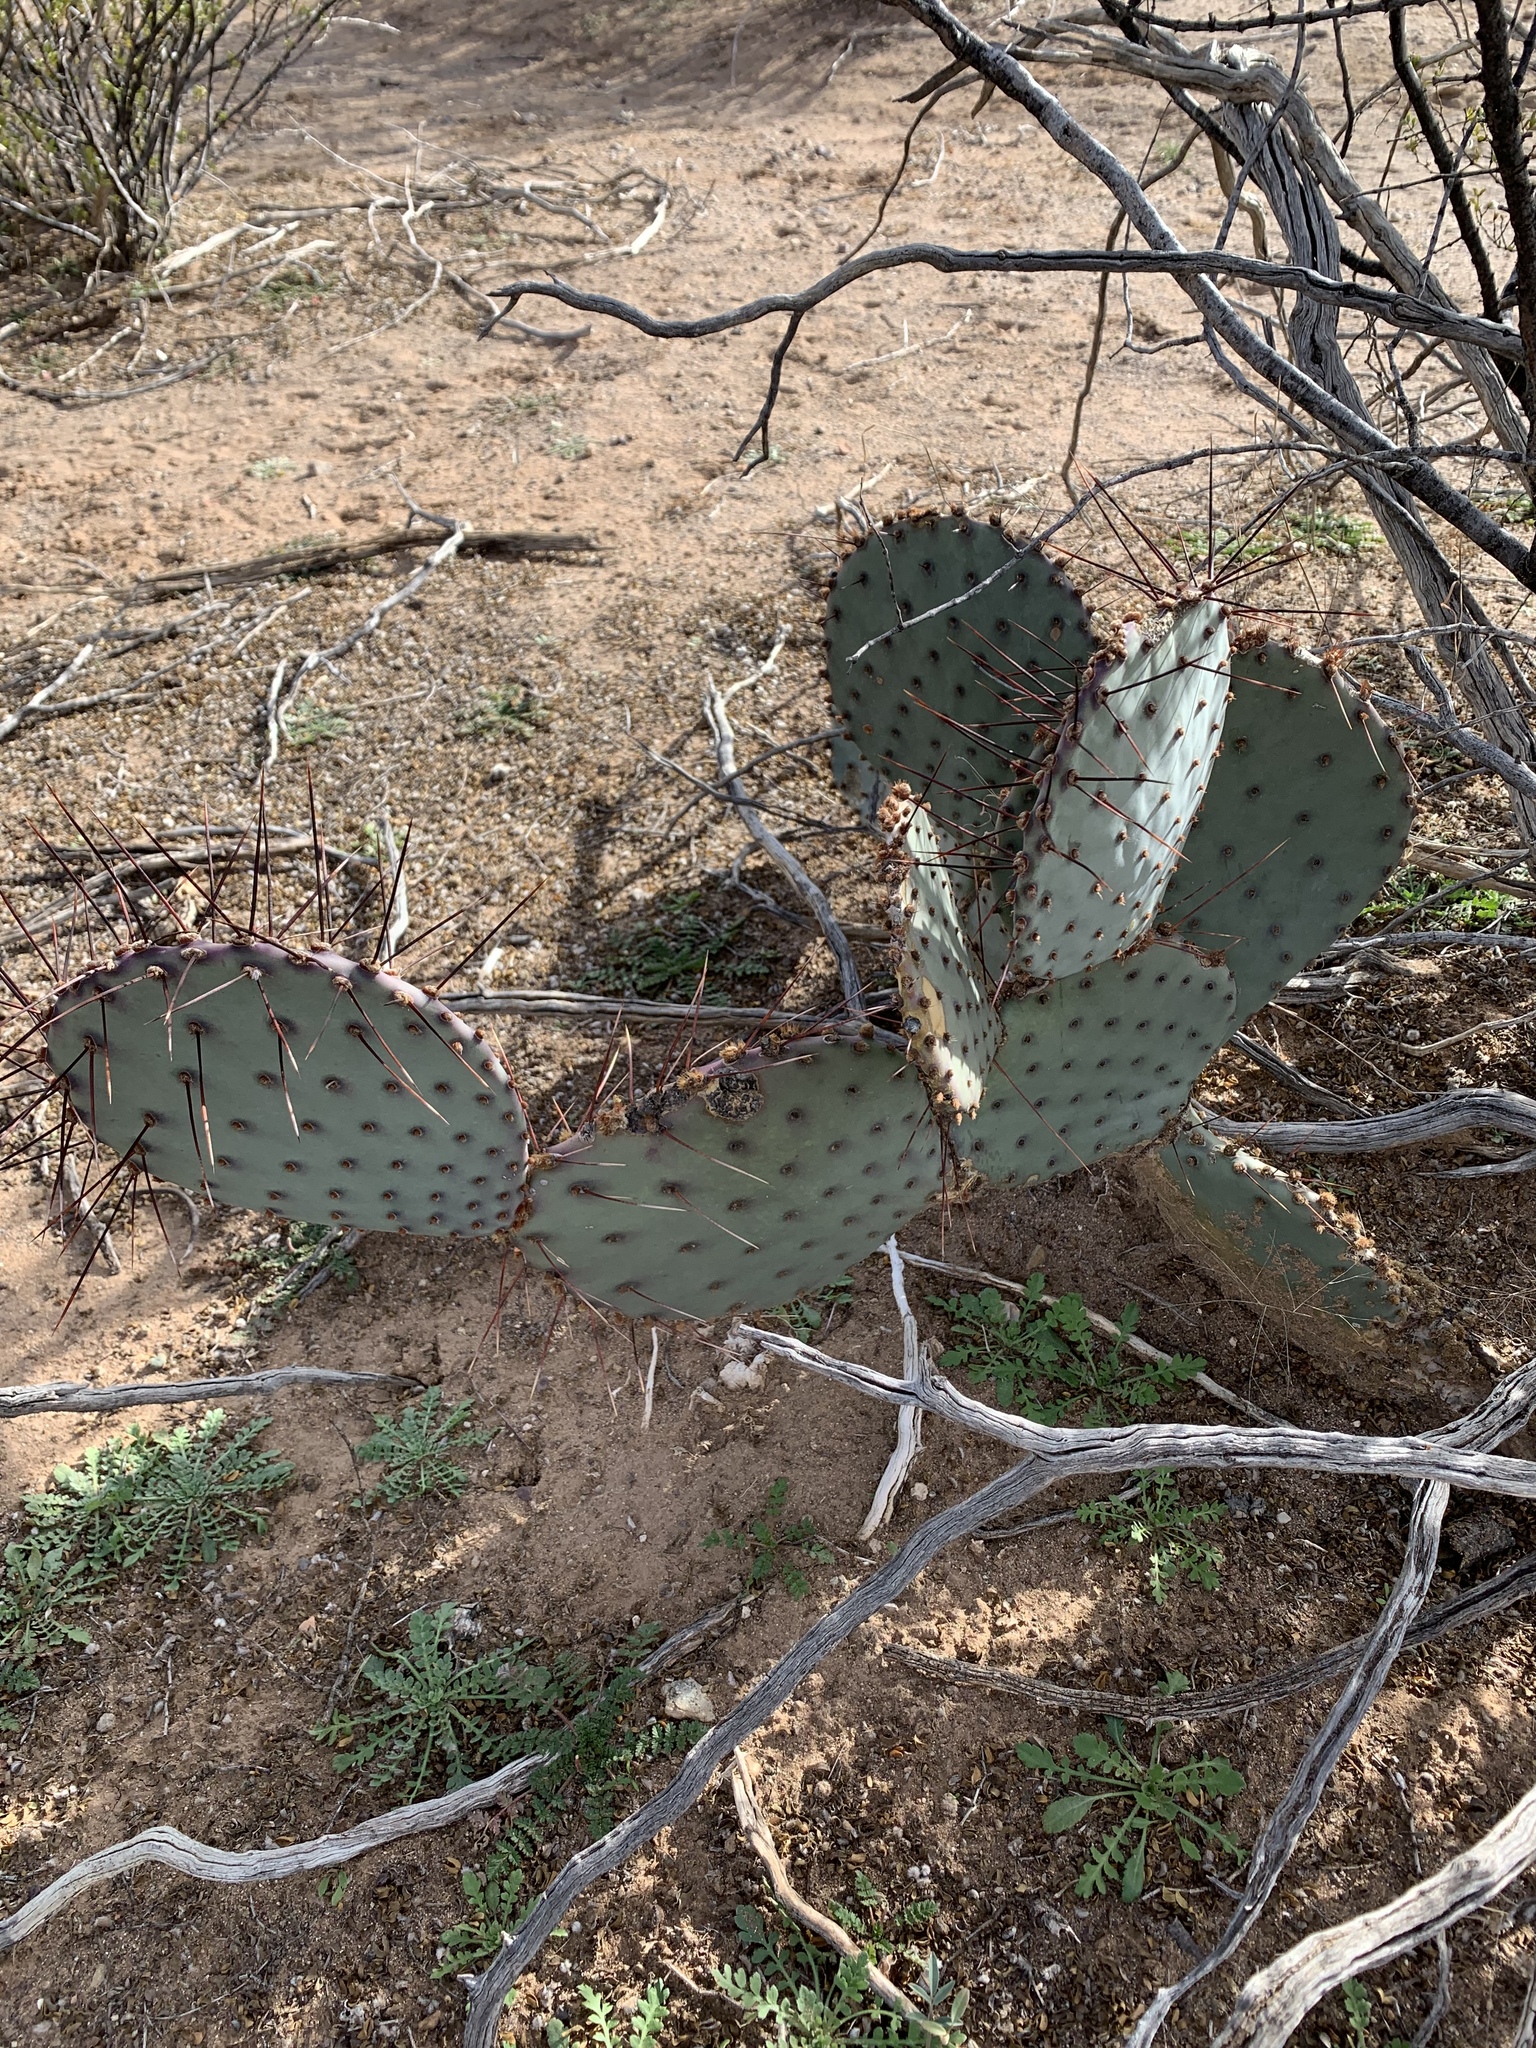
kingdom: Plantae
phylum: Tracheophyta
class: Magnoliopsida
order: Caryophyllales
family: Cactaceae
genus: Opuntia
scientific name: Opuntia macrocentra
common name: Purple prickly-pear
